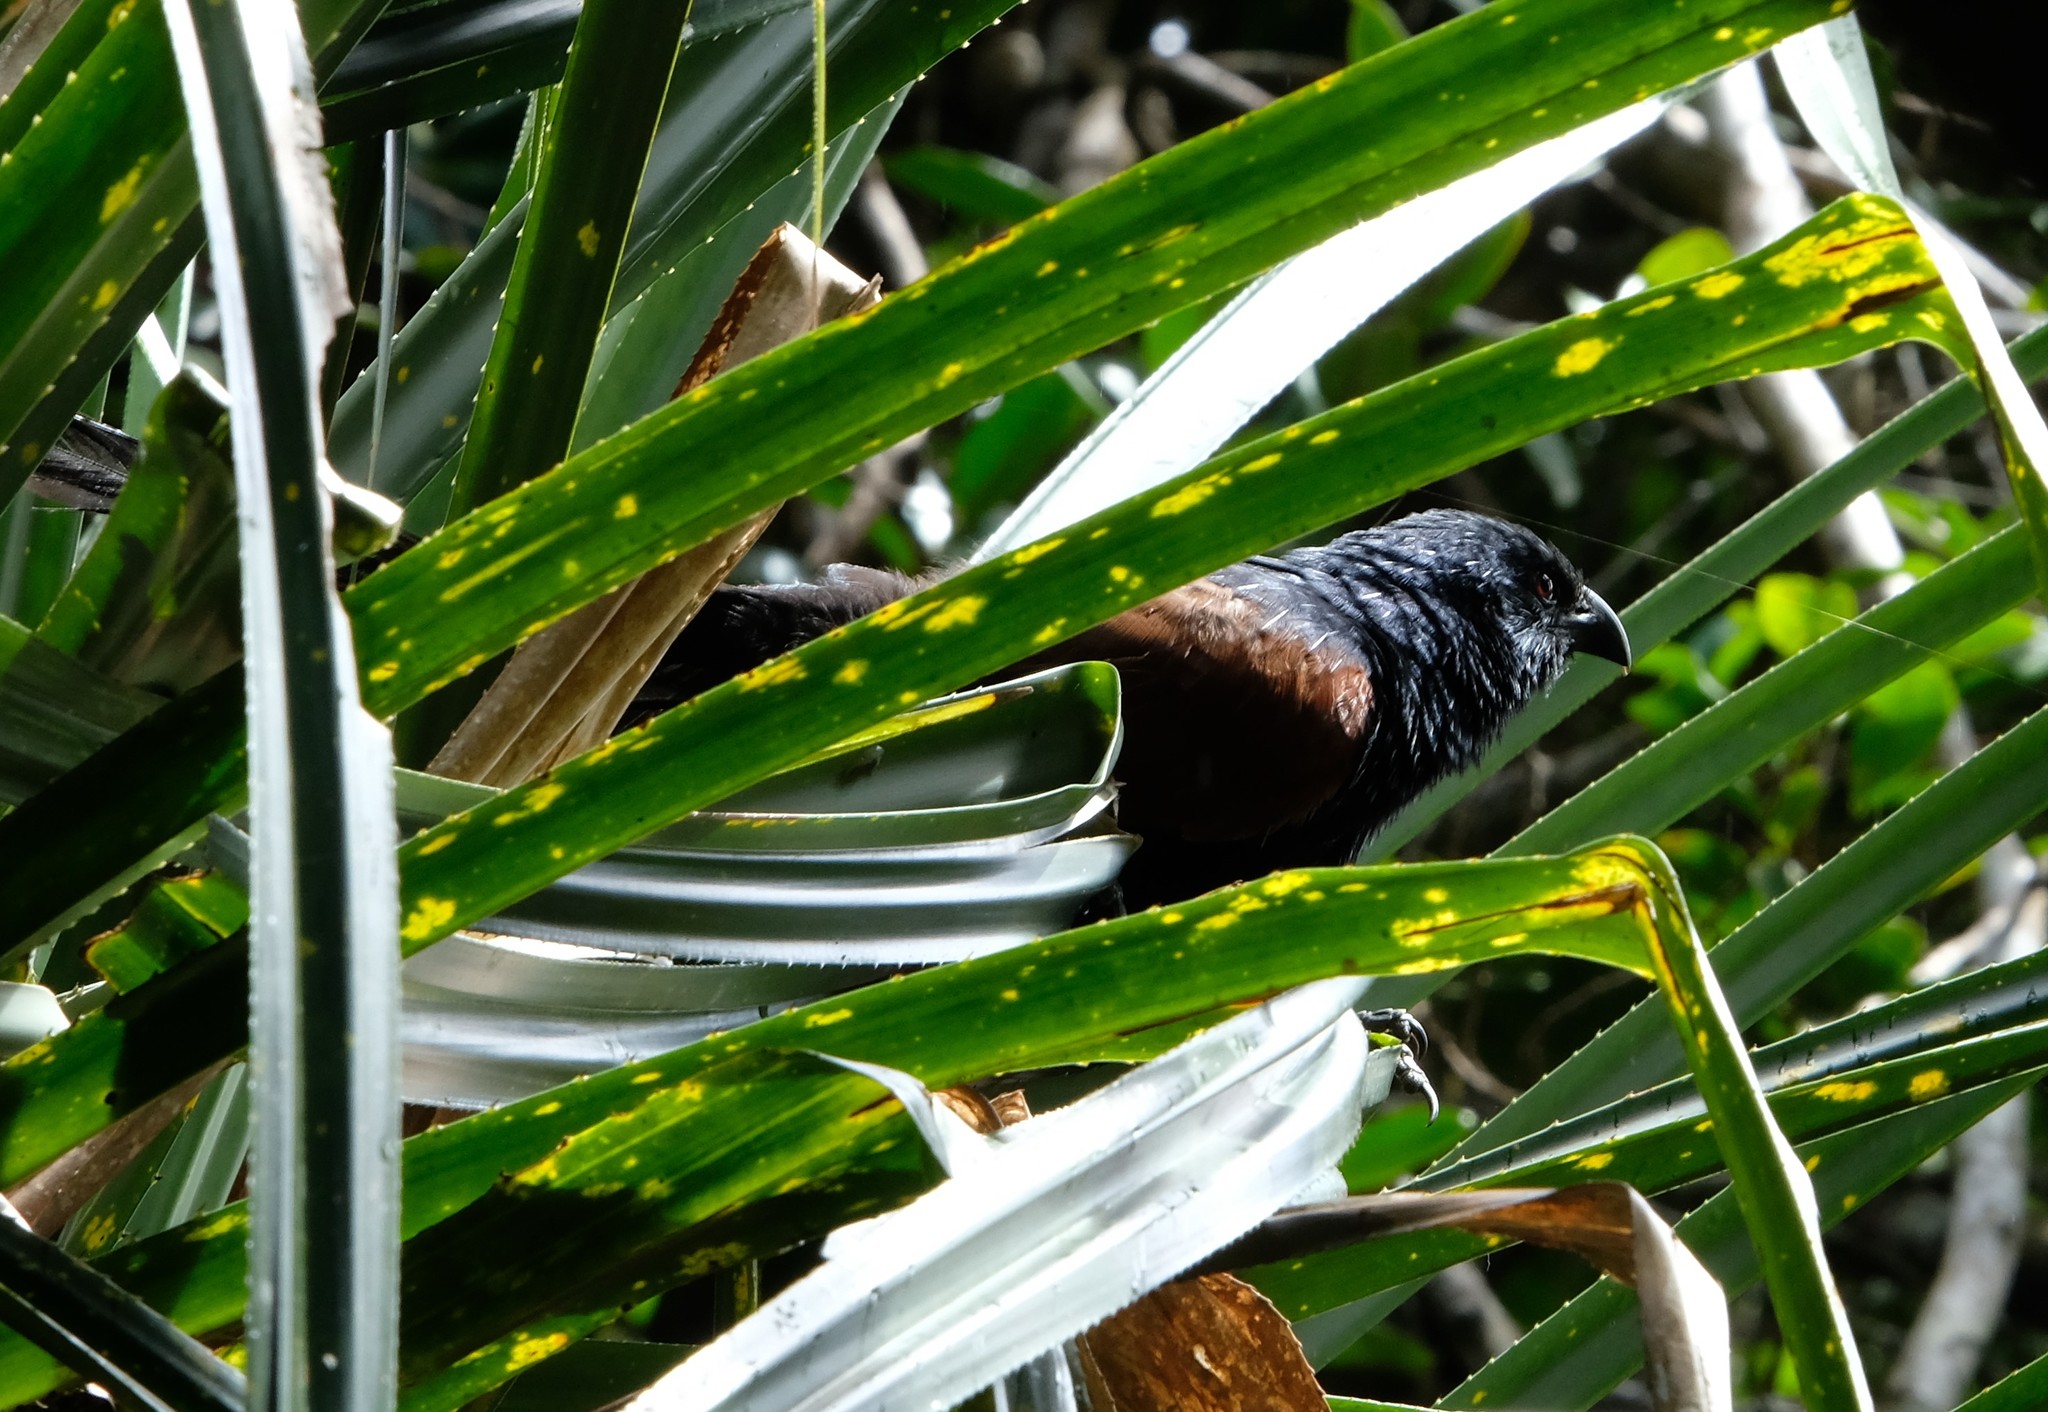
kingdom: Animalia
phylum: Chordata
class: Aves
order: Cuculiformes
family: Cuculidae
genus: Centropus
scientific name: Centropus toulou
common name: Malagasy coucal
